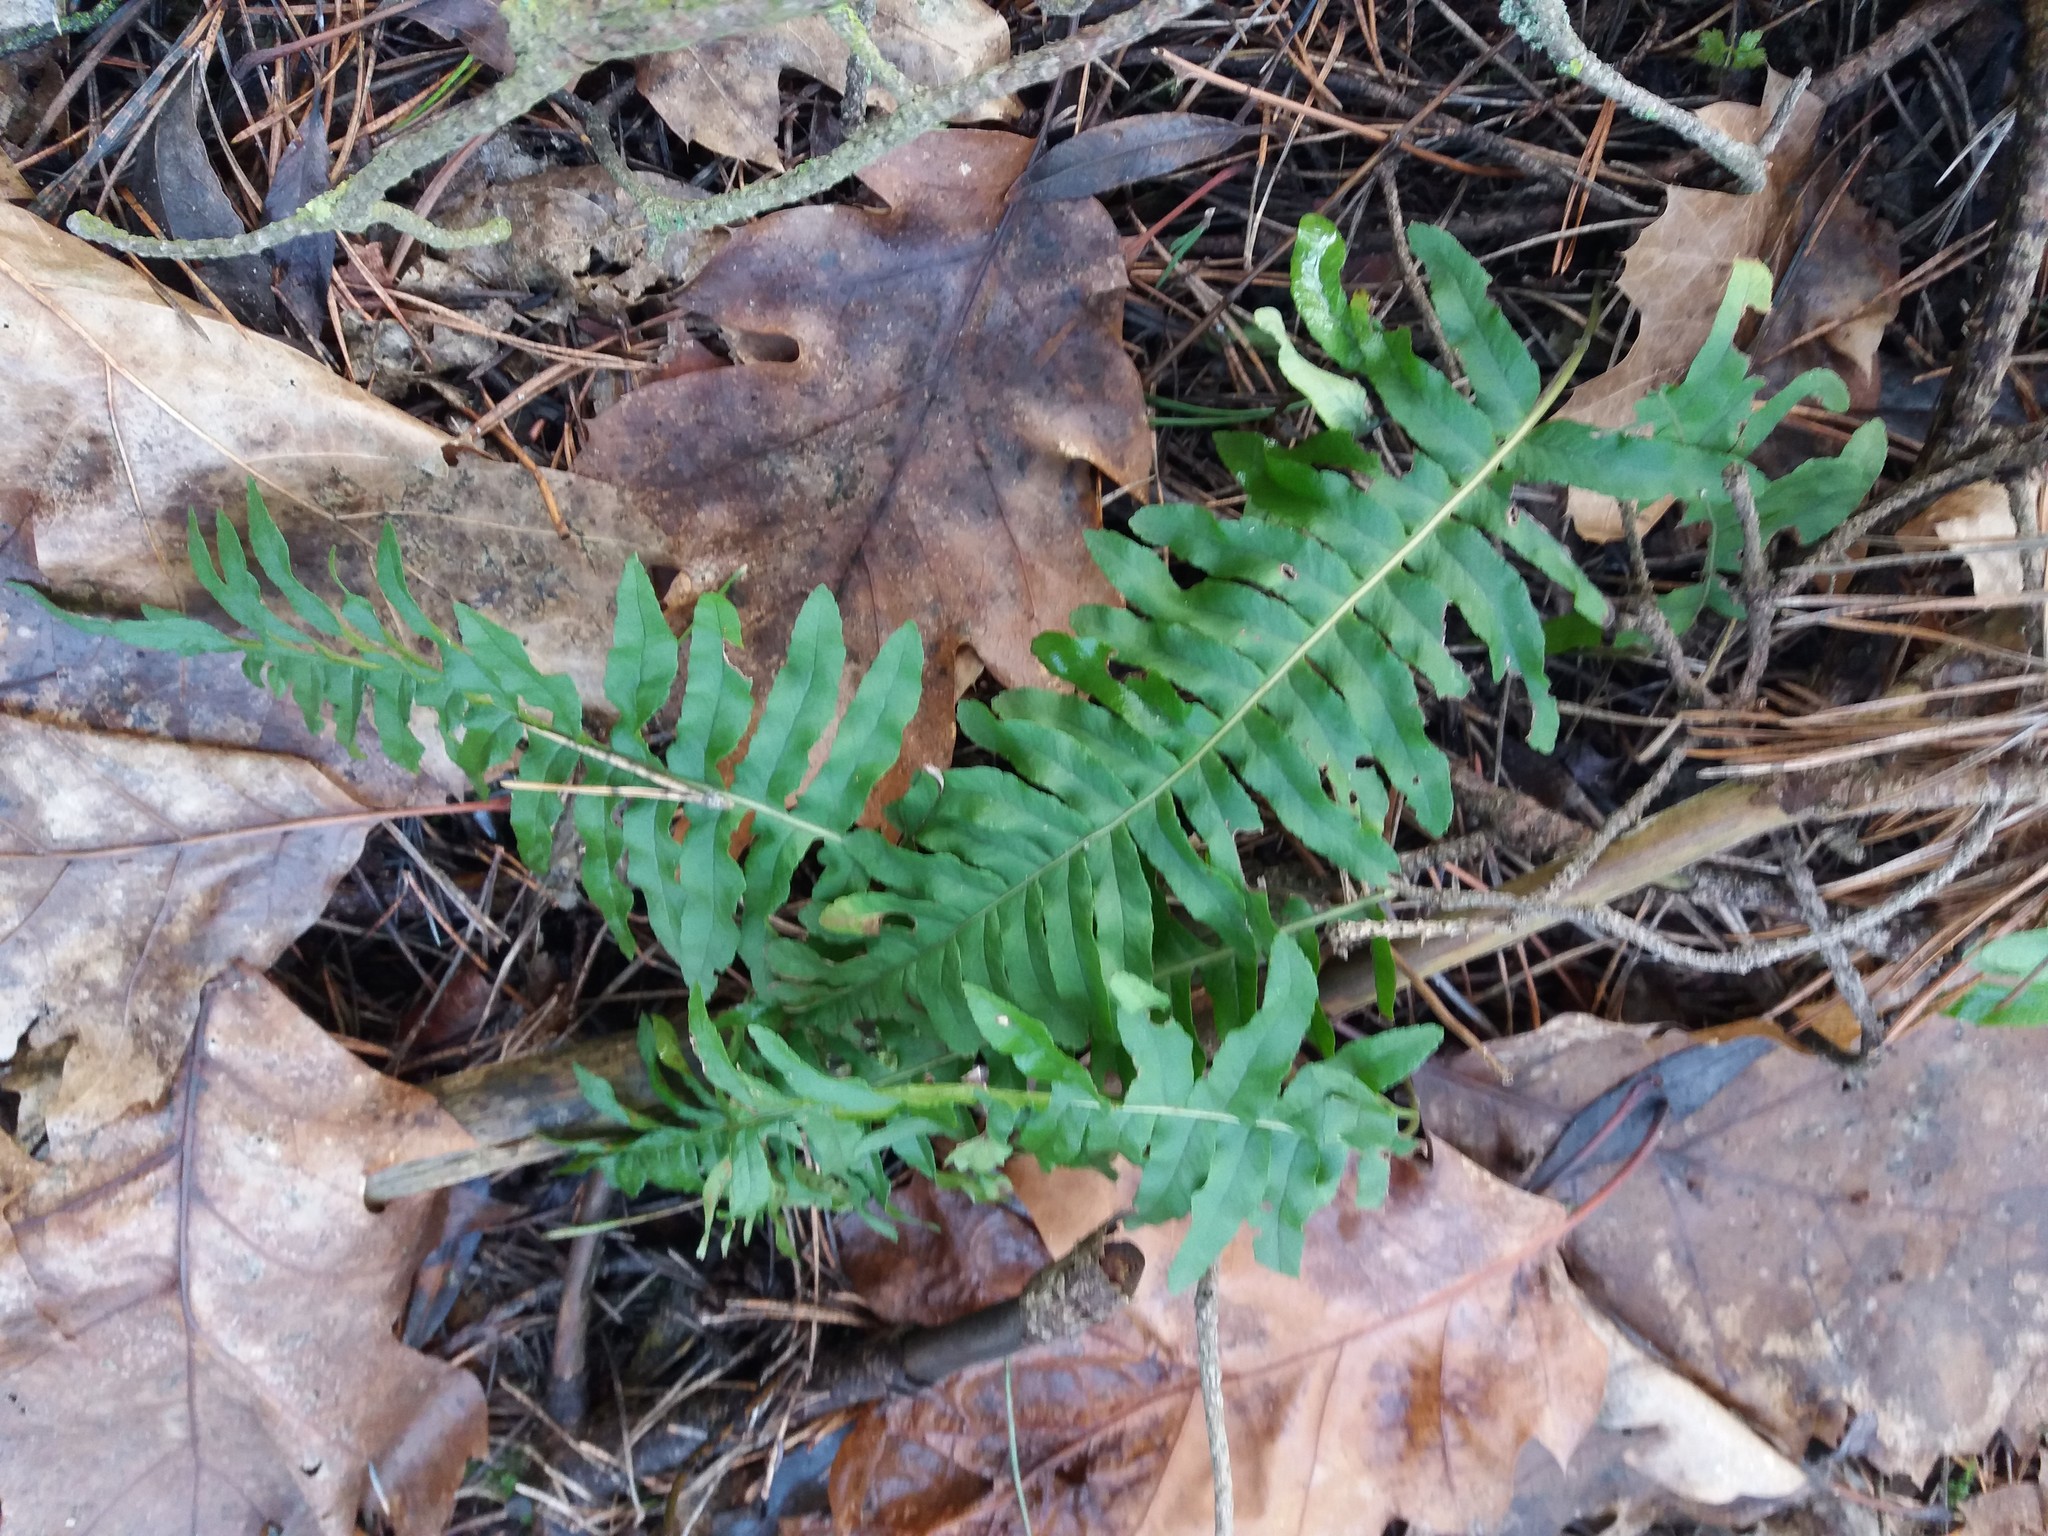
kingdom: Plantae
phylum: Tracheophyta
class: Polypodiopsida
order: Polypodiales
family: Polypodiaceae
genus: Polypodium
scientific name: Polypodium vulgare
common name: Common polypody
